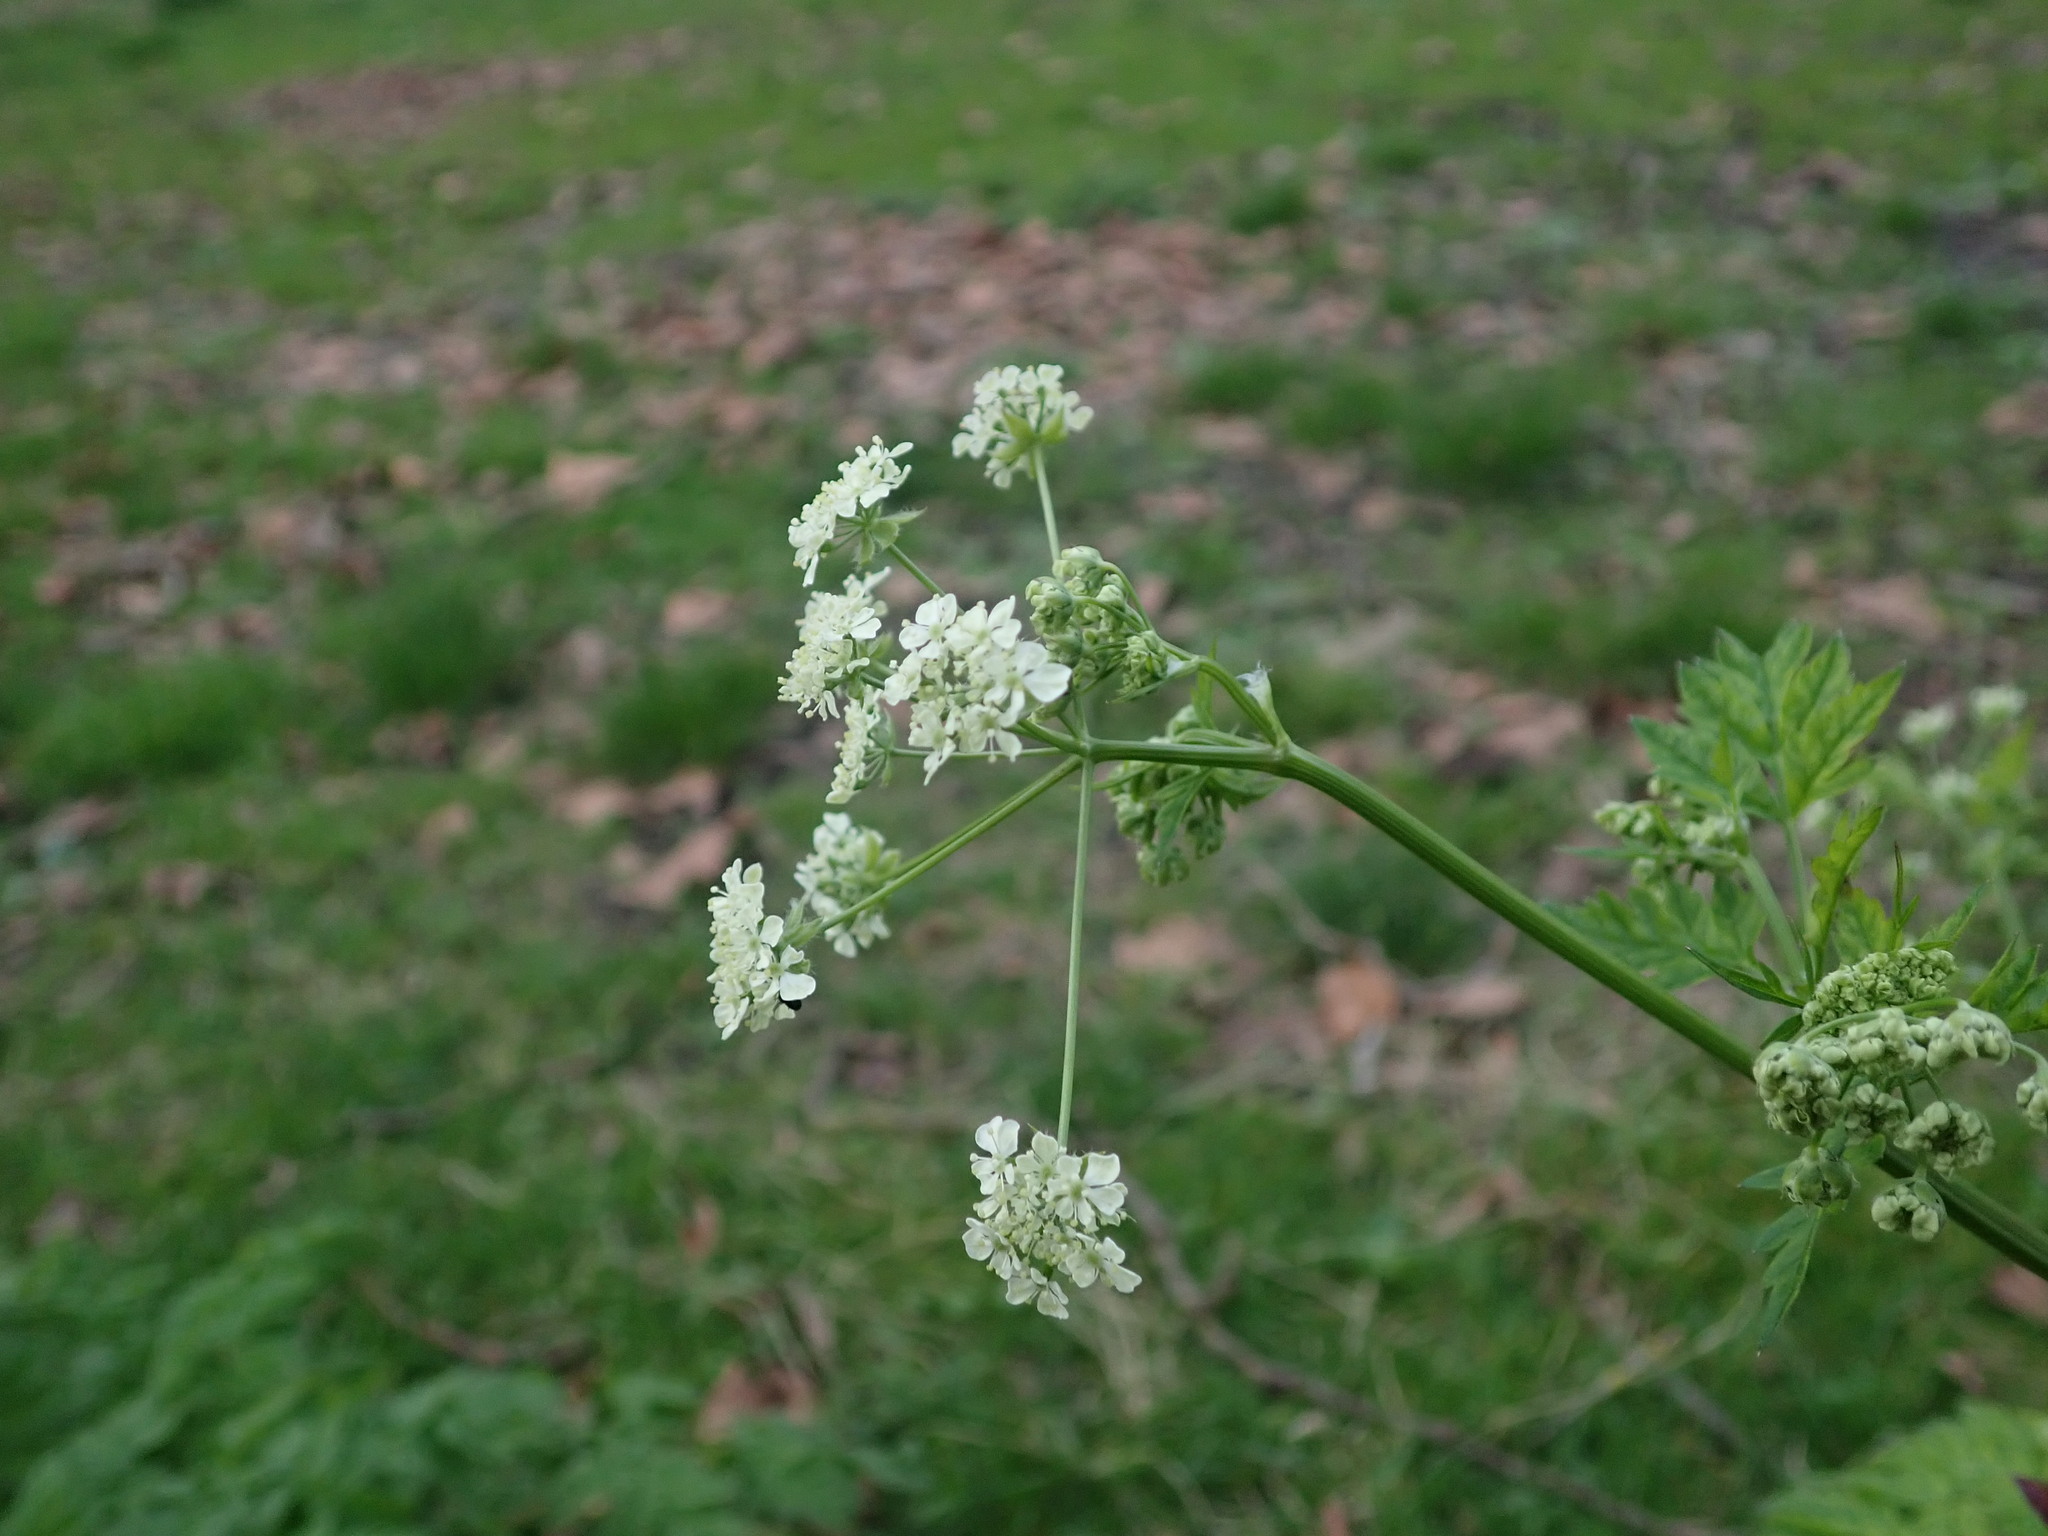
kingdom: Plantae
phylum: Tracheophyta
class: Magnoliopsida
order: Apiales
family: Apiaceae
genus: Anthriscus
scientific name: Anthriscus sylvestris
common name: Cow parsley
